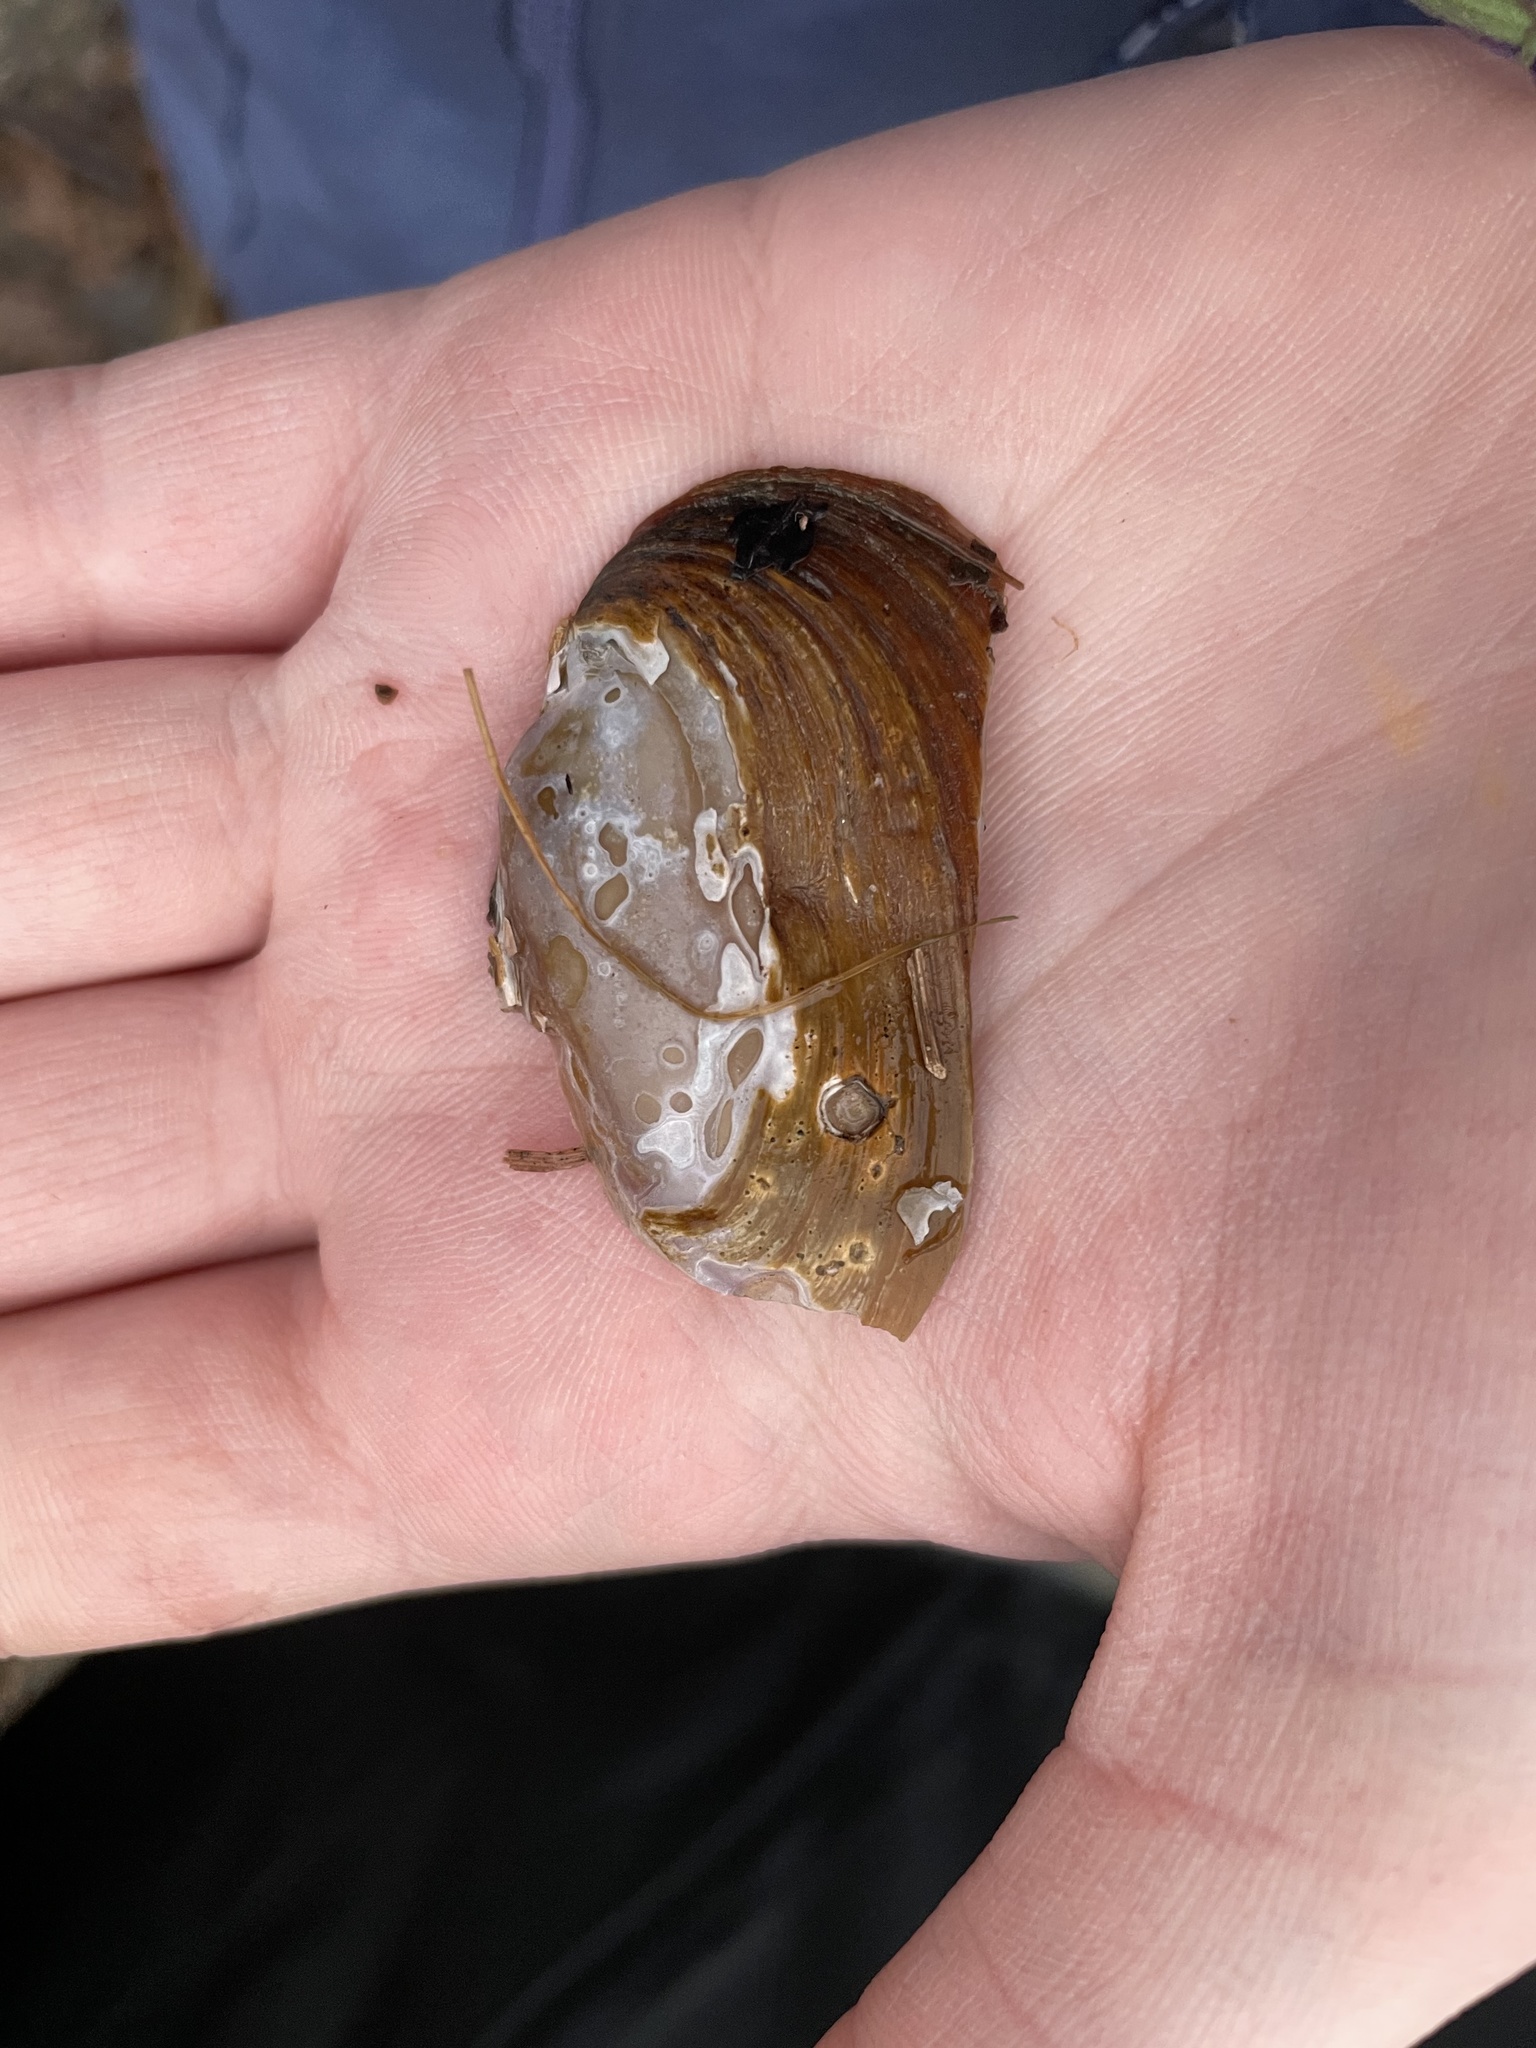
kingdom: Animalia
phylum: Mollusca
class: Bivalvia
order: Unionida
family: Unionidae
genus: Elliptio
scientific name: Elliptio complanata
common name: Eastern elliptio
